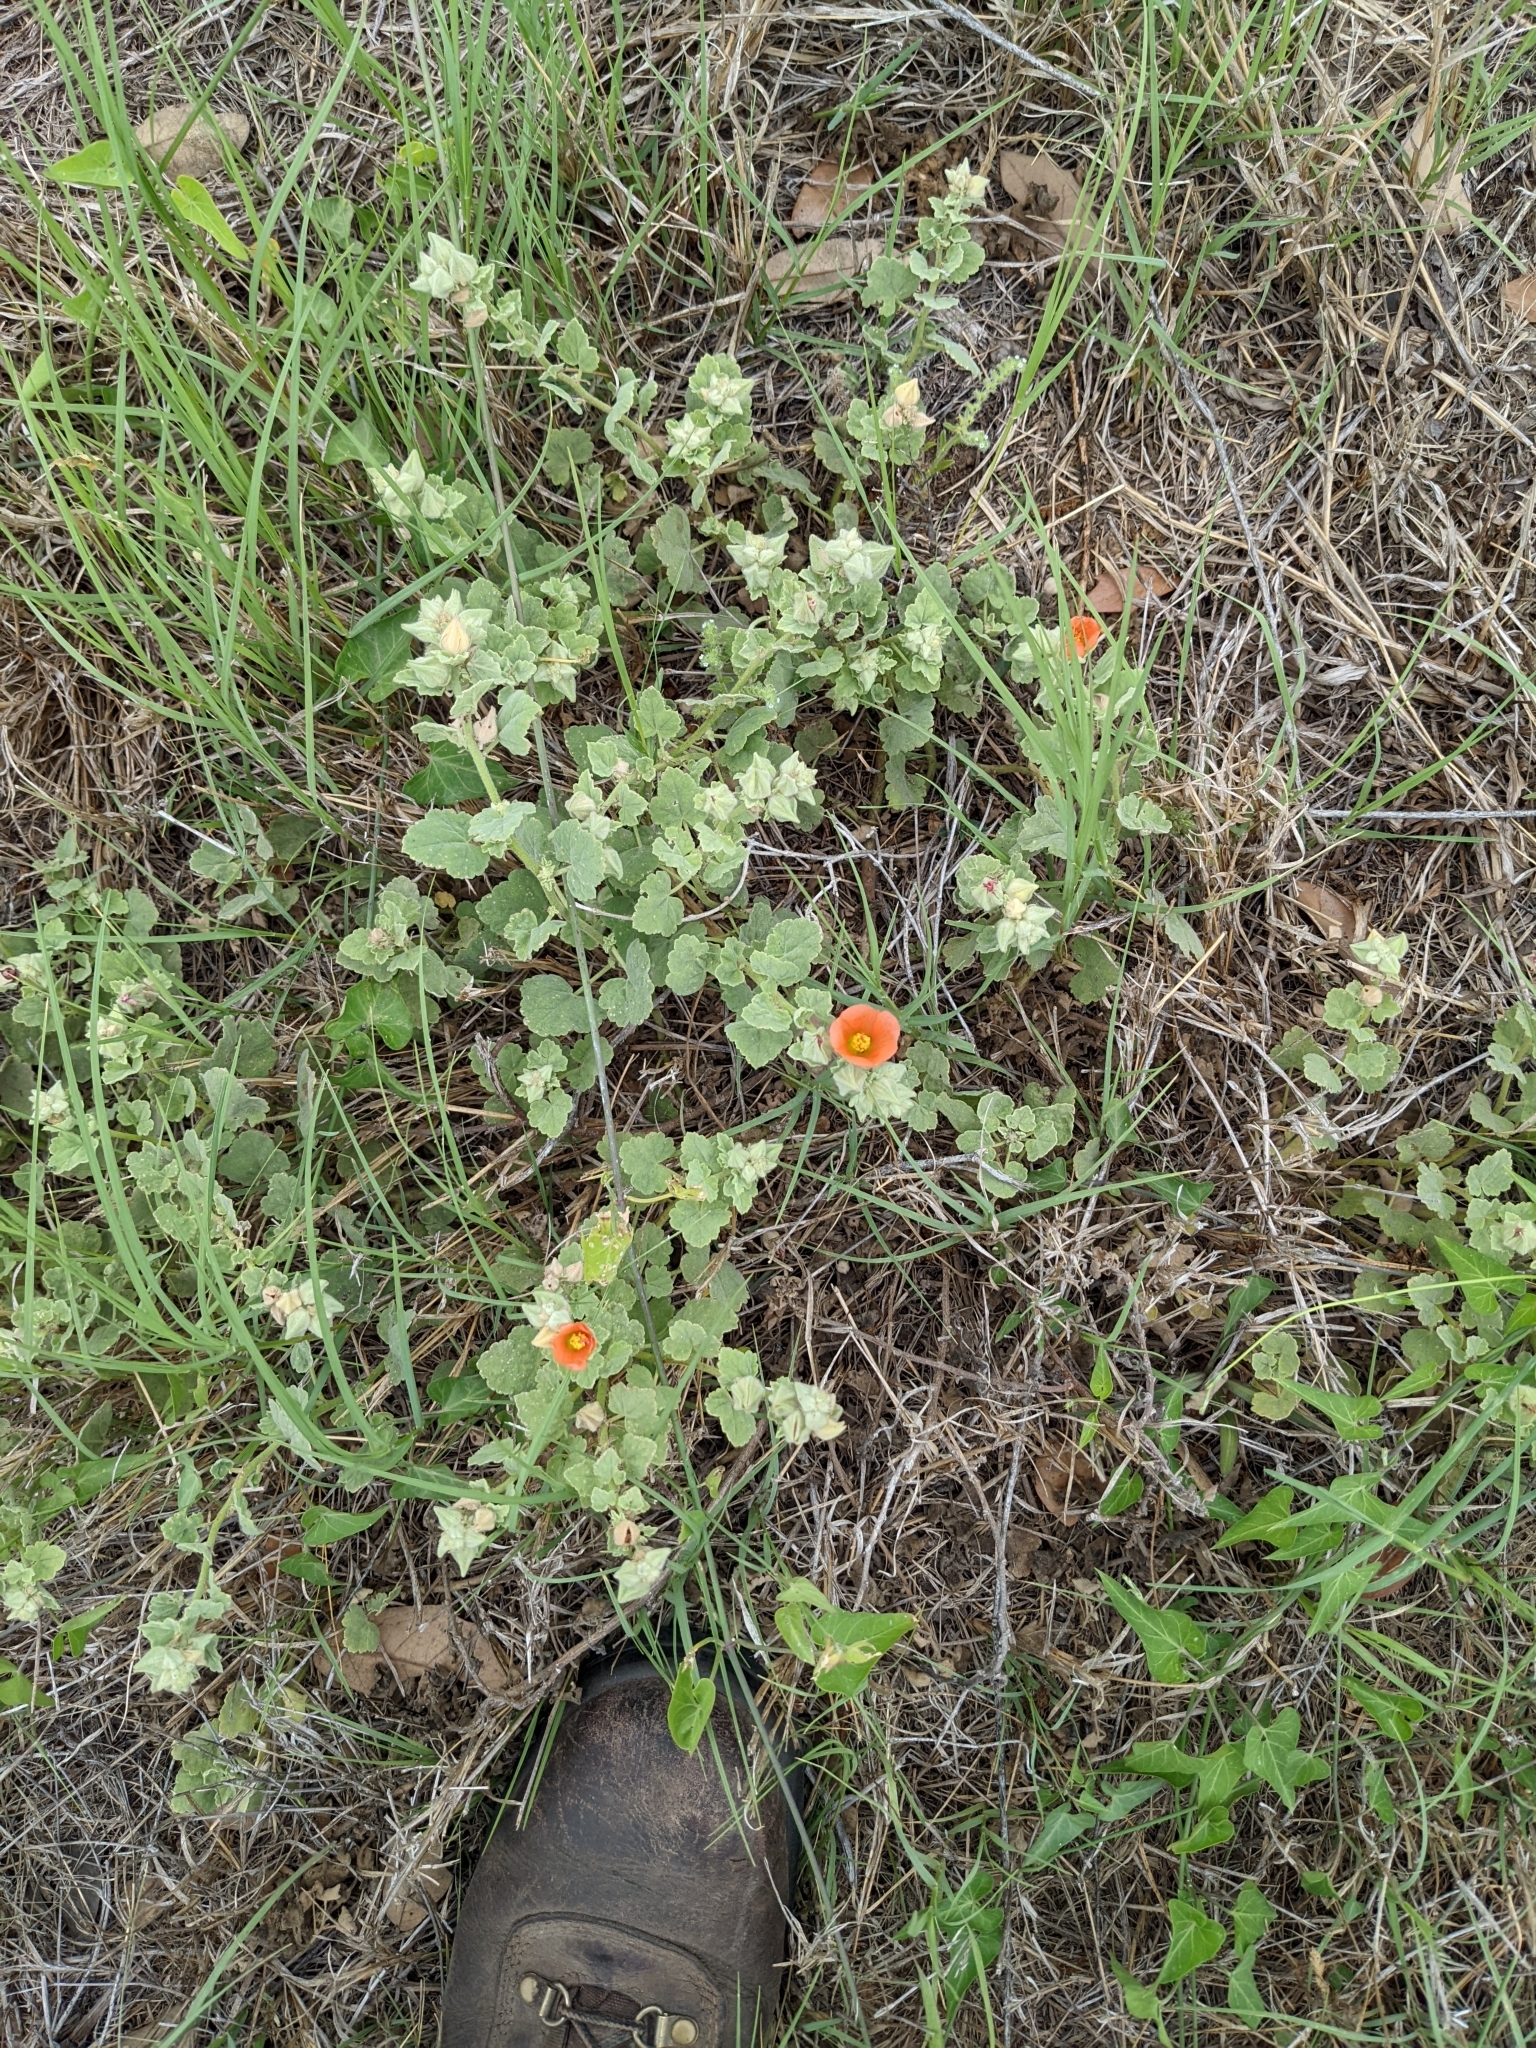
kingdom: Plantae
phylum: Tracheophyta
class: Magnoliopsida
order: Malvales
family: Malvaceae
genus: Sphaeralcea
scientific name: Sphaeralcea lindheimeri
